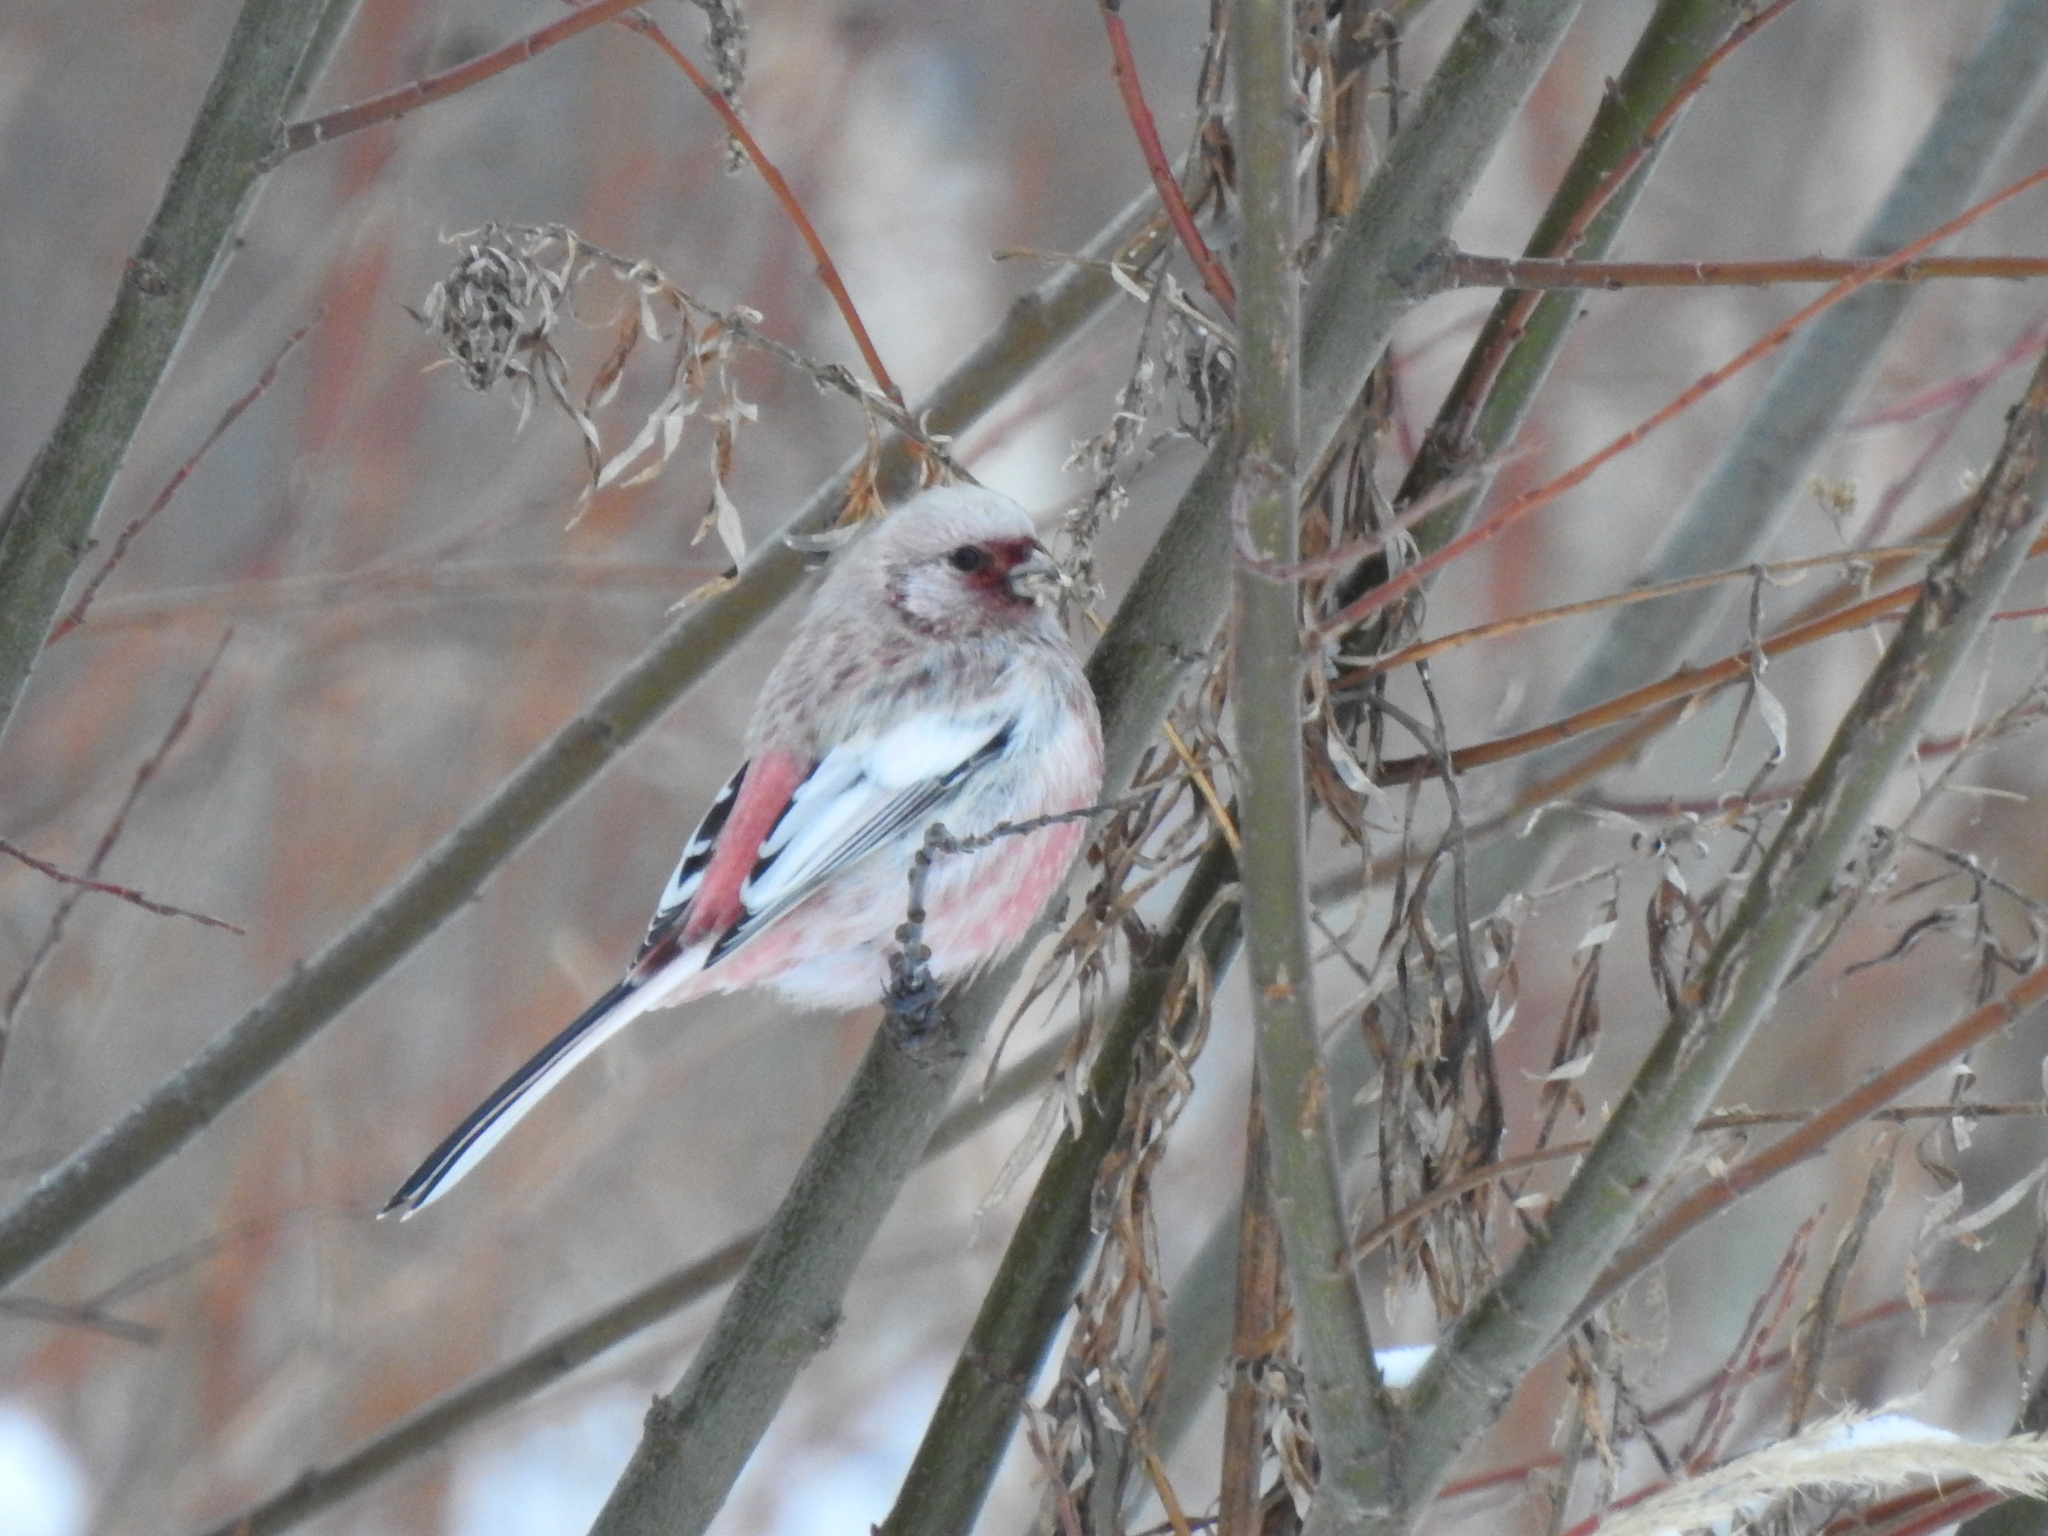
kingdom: Animalia
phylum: Chordata
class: Aves
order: Passeriformes
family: Fringillidae
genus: Carpodacus
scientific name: Carpodacus sibiricus
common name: Long-tailed rosefinch
